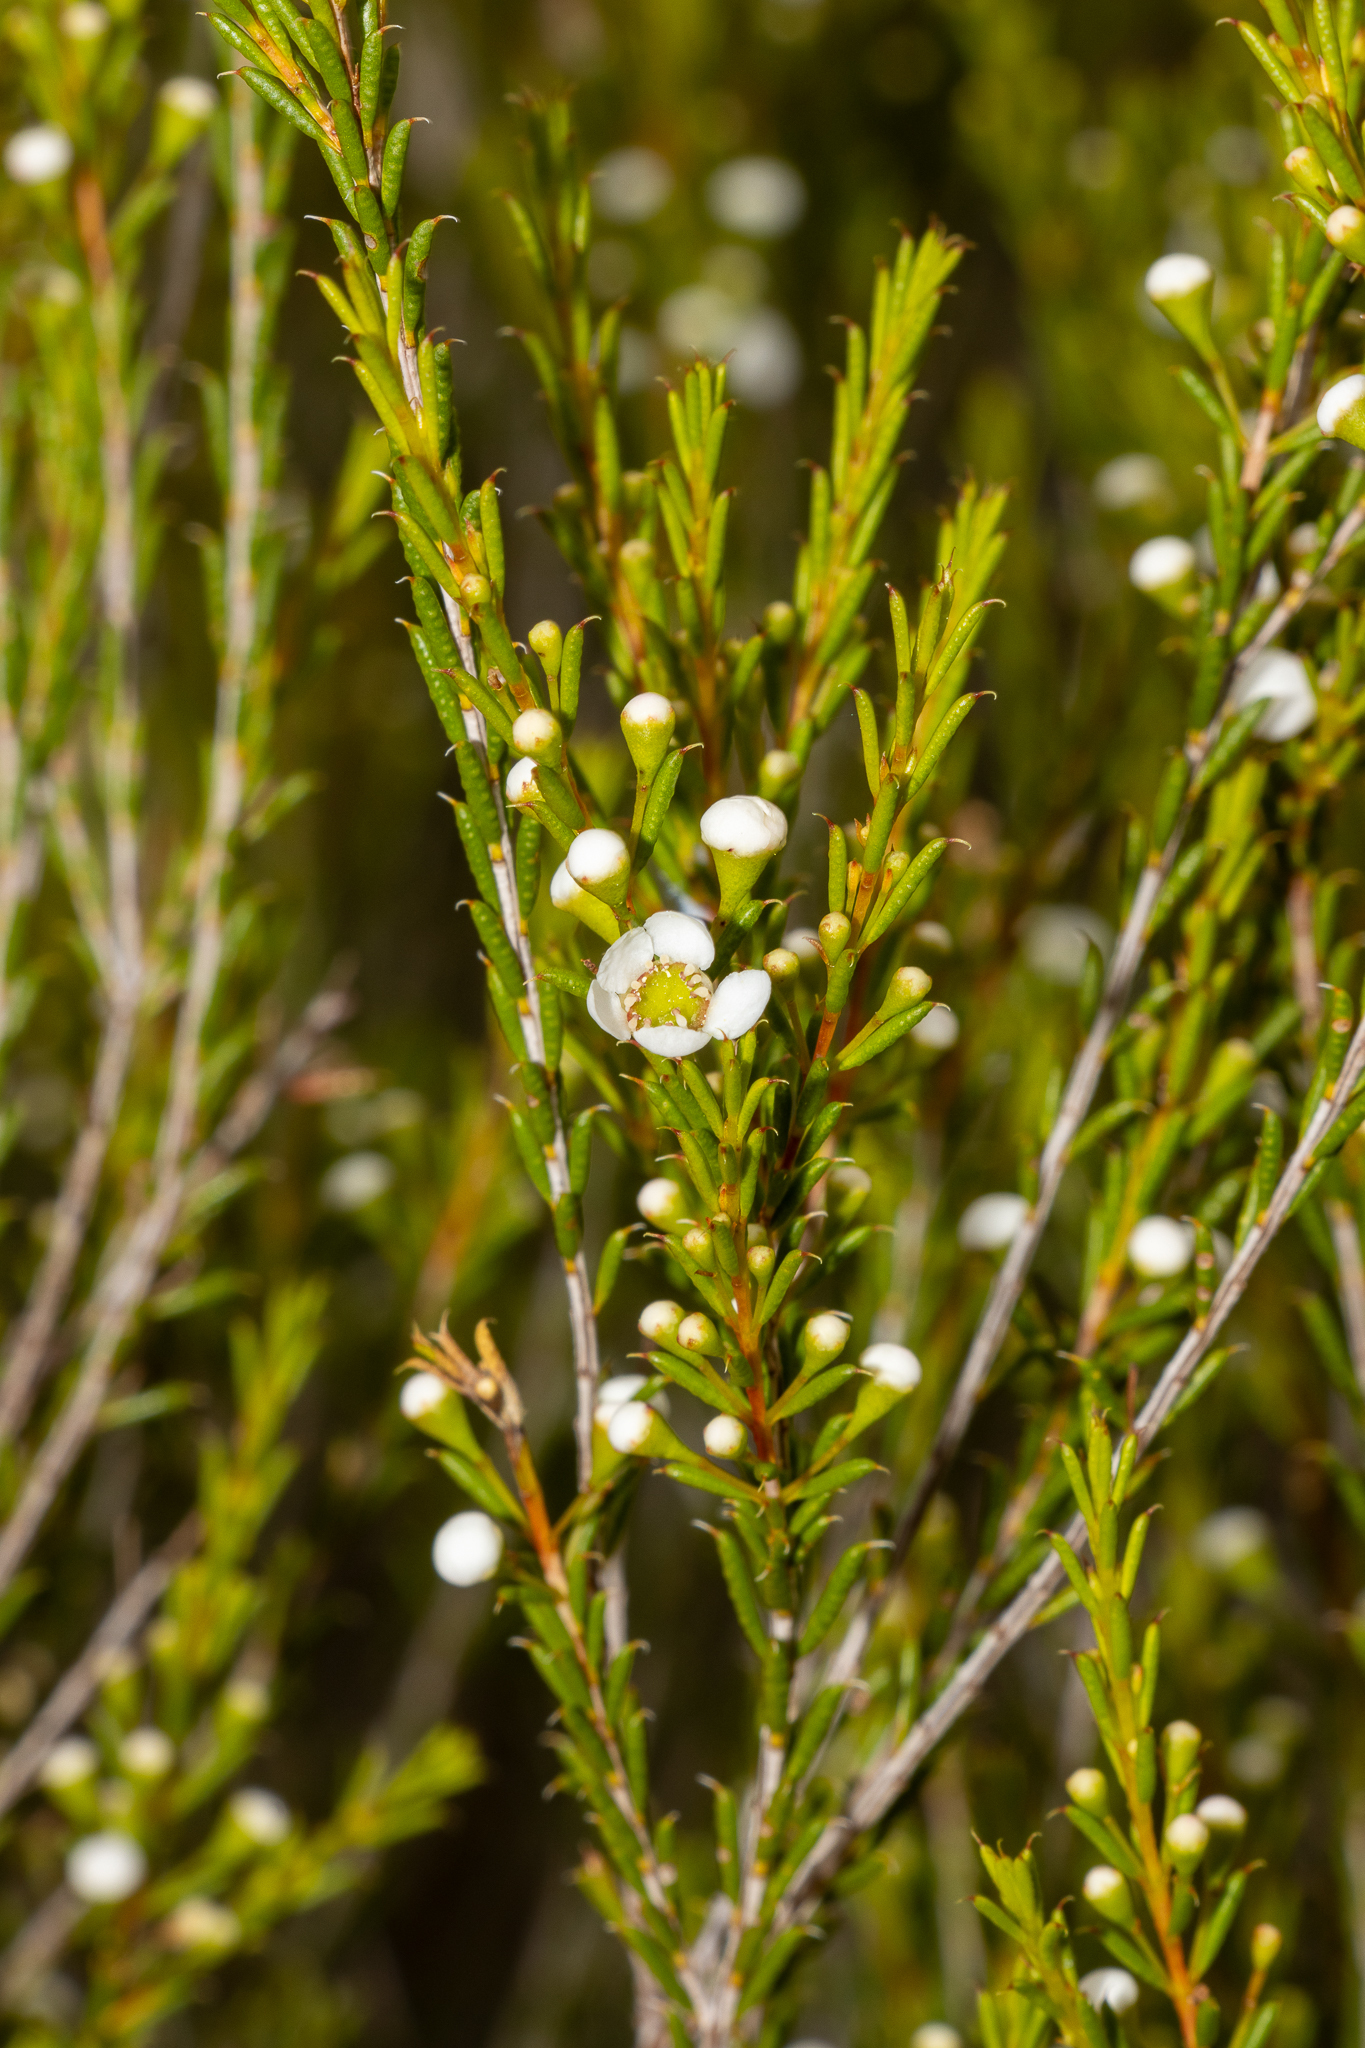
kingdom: Plantae
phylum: Tracheophyta
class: Magnoliopsida
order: Myrtales
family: Myrtaceae
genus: Hysterobaeckea
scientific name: Hysterobaeckea behrii
